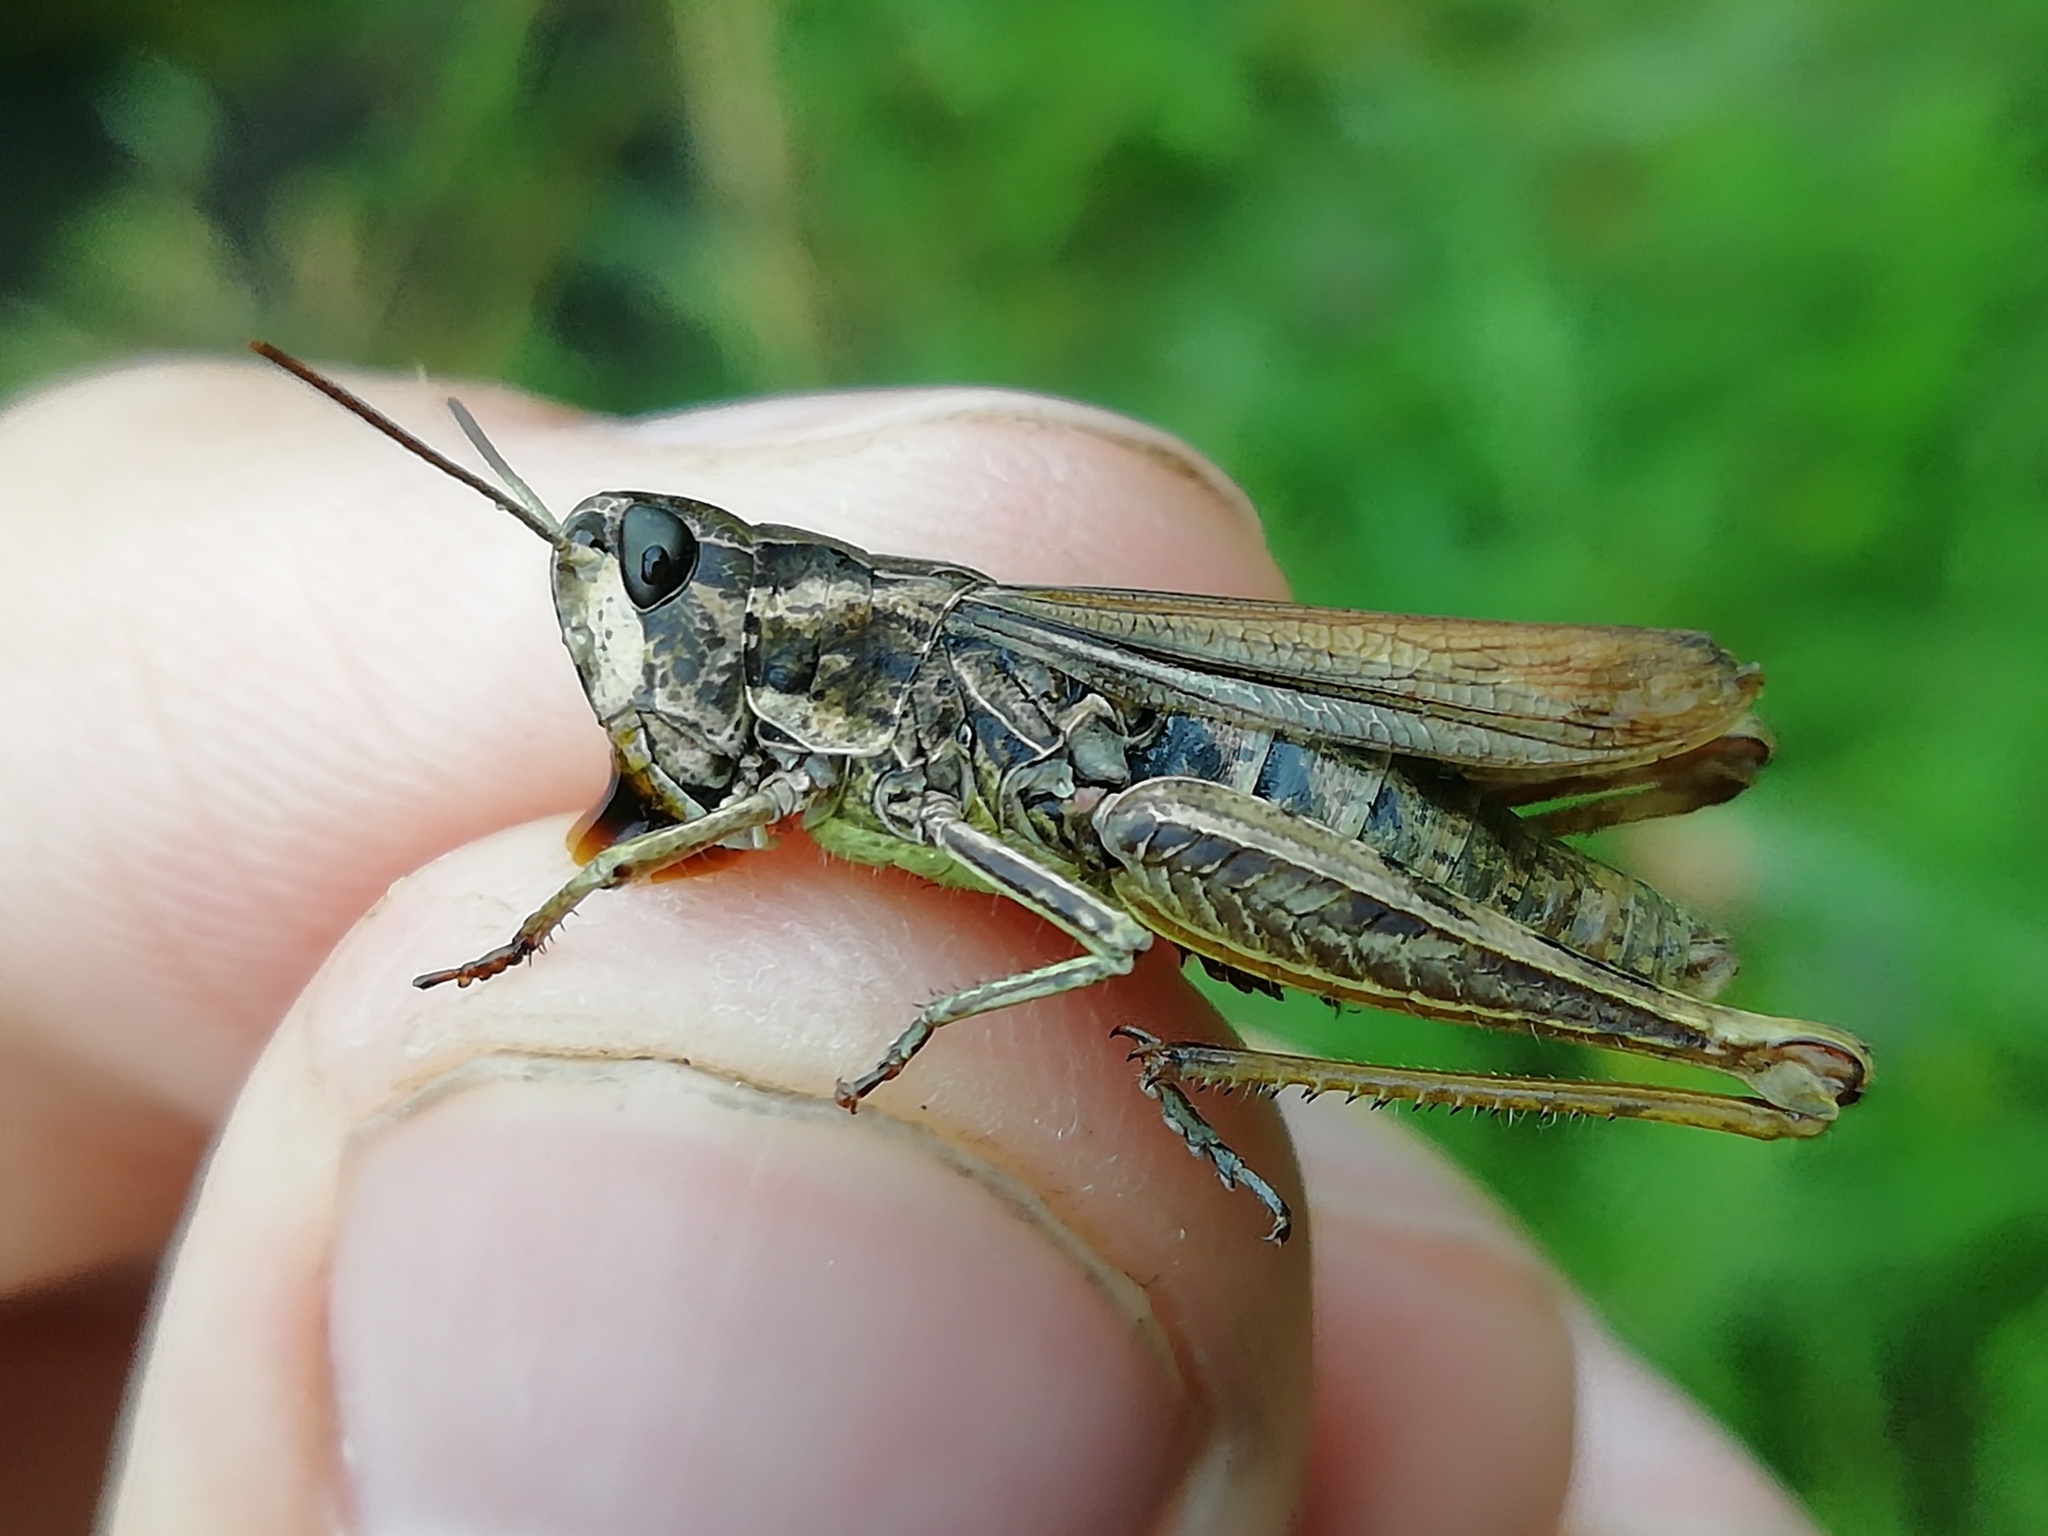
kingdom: Animalia
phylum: Arthropoda
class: Insecta
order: Orthoptera
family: Acrididae
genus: Chorthippus
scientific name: Chorthippus apricarius
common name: Upland field grasshopper
